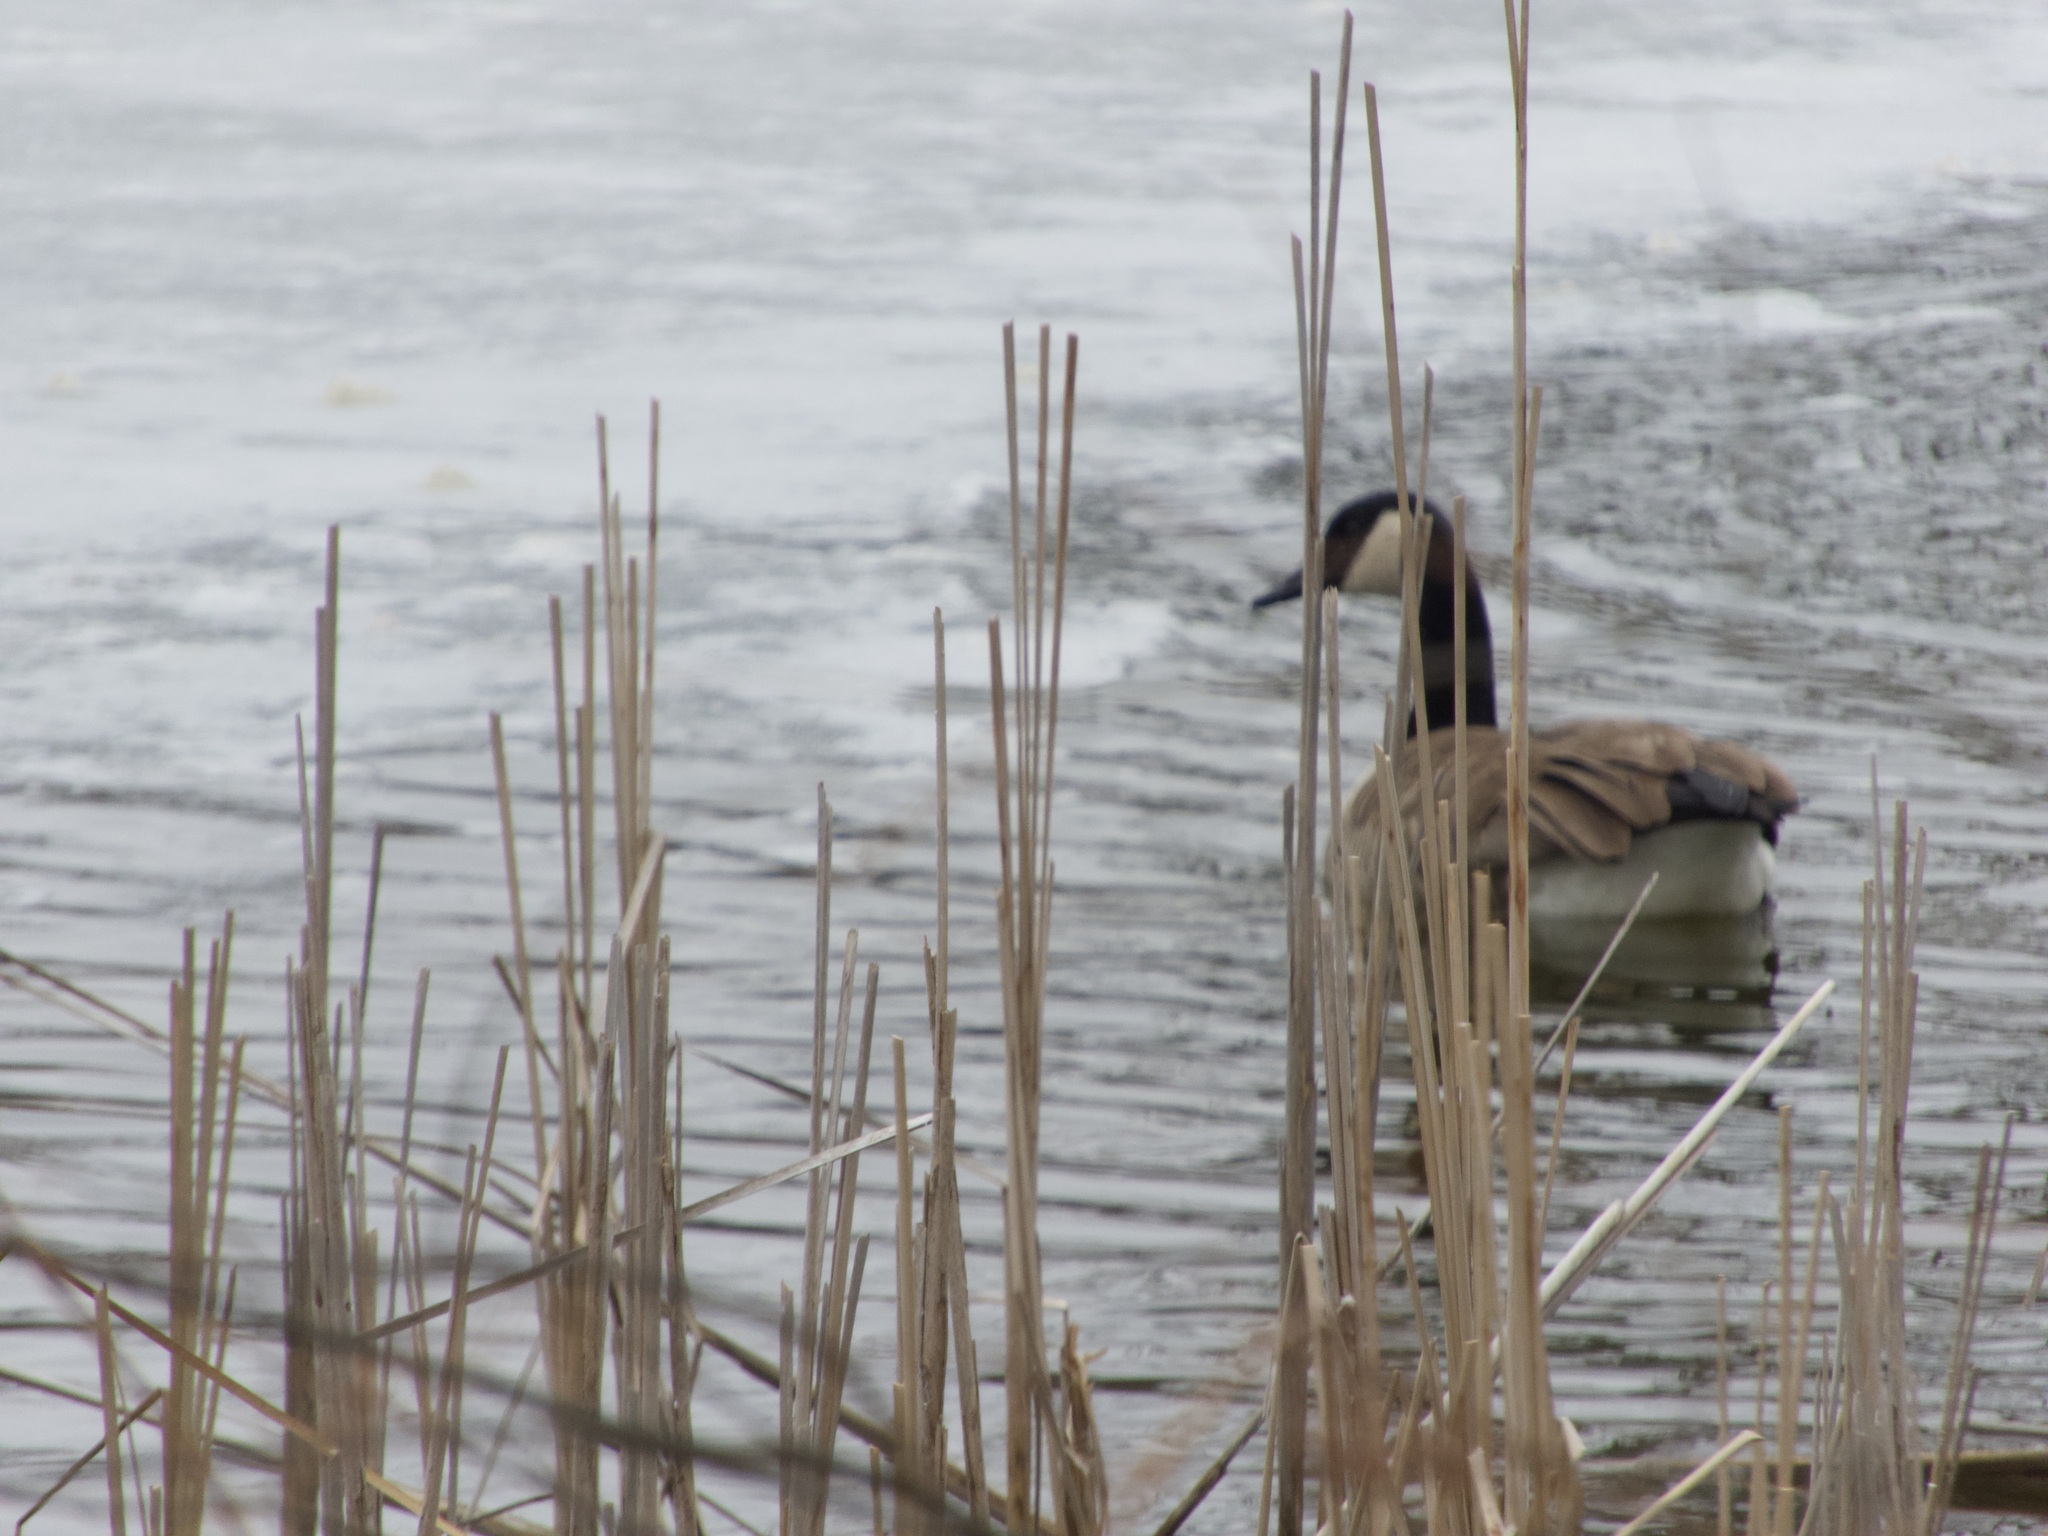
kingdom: Animalia
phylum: Chordata
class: Aves
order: Anseriformes
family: Anatidae
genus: Branta
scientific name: Branta canadensis
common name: Canada goose
